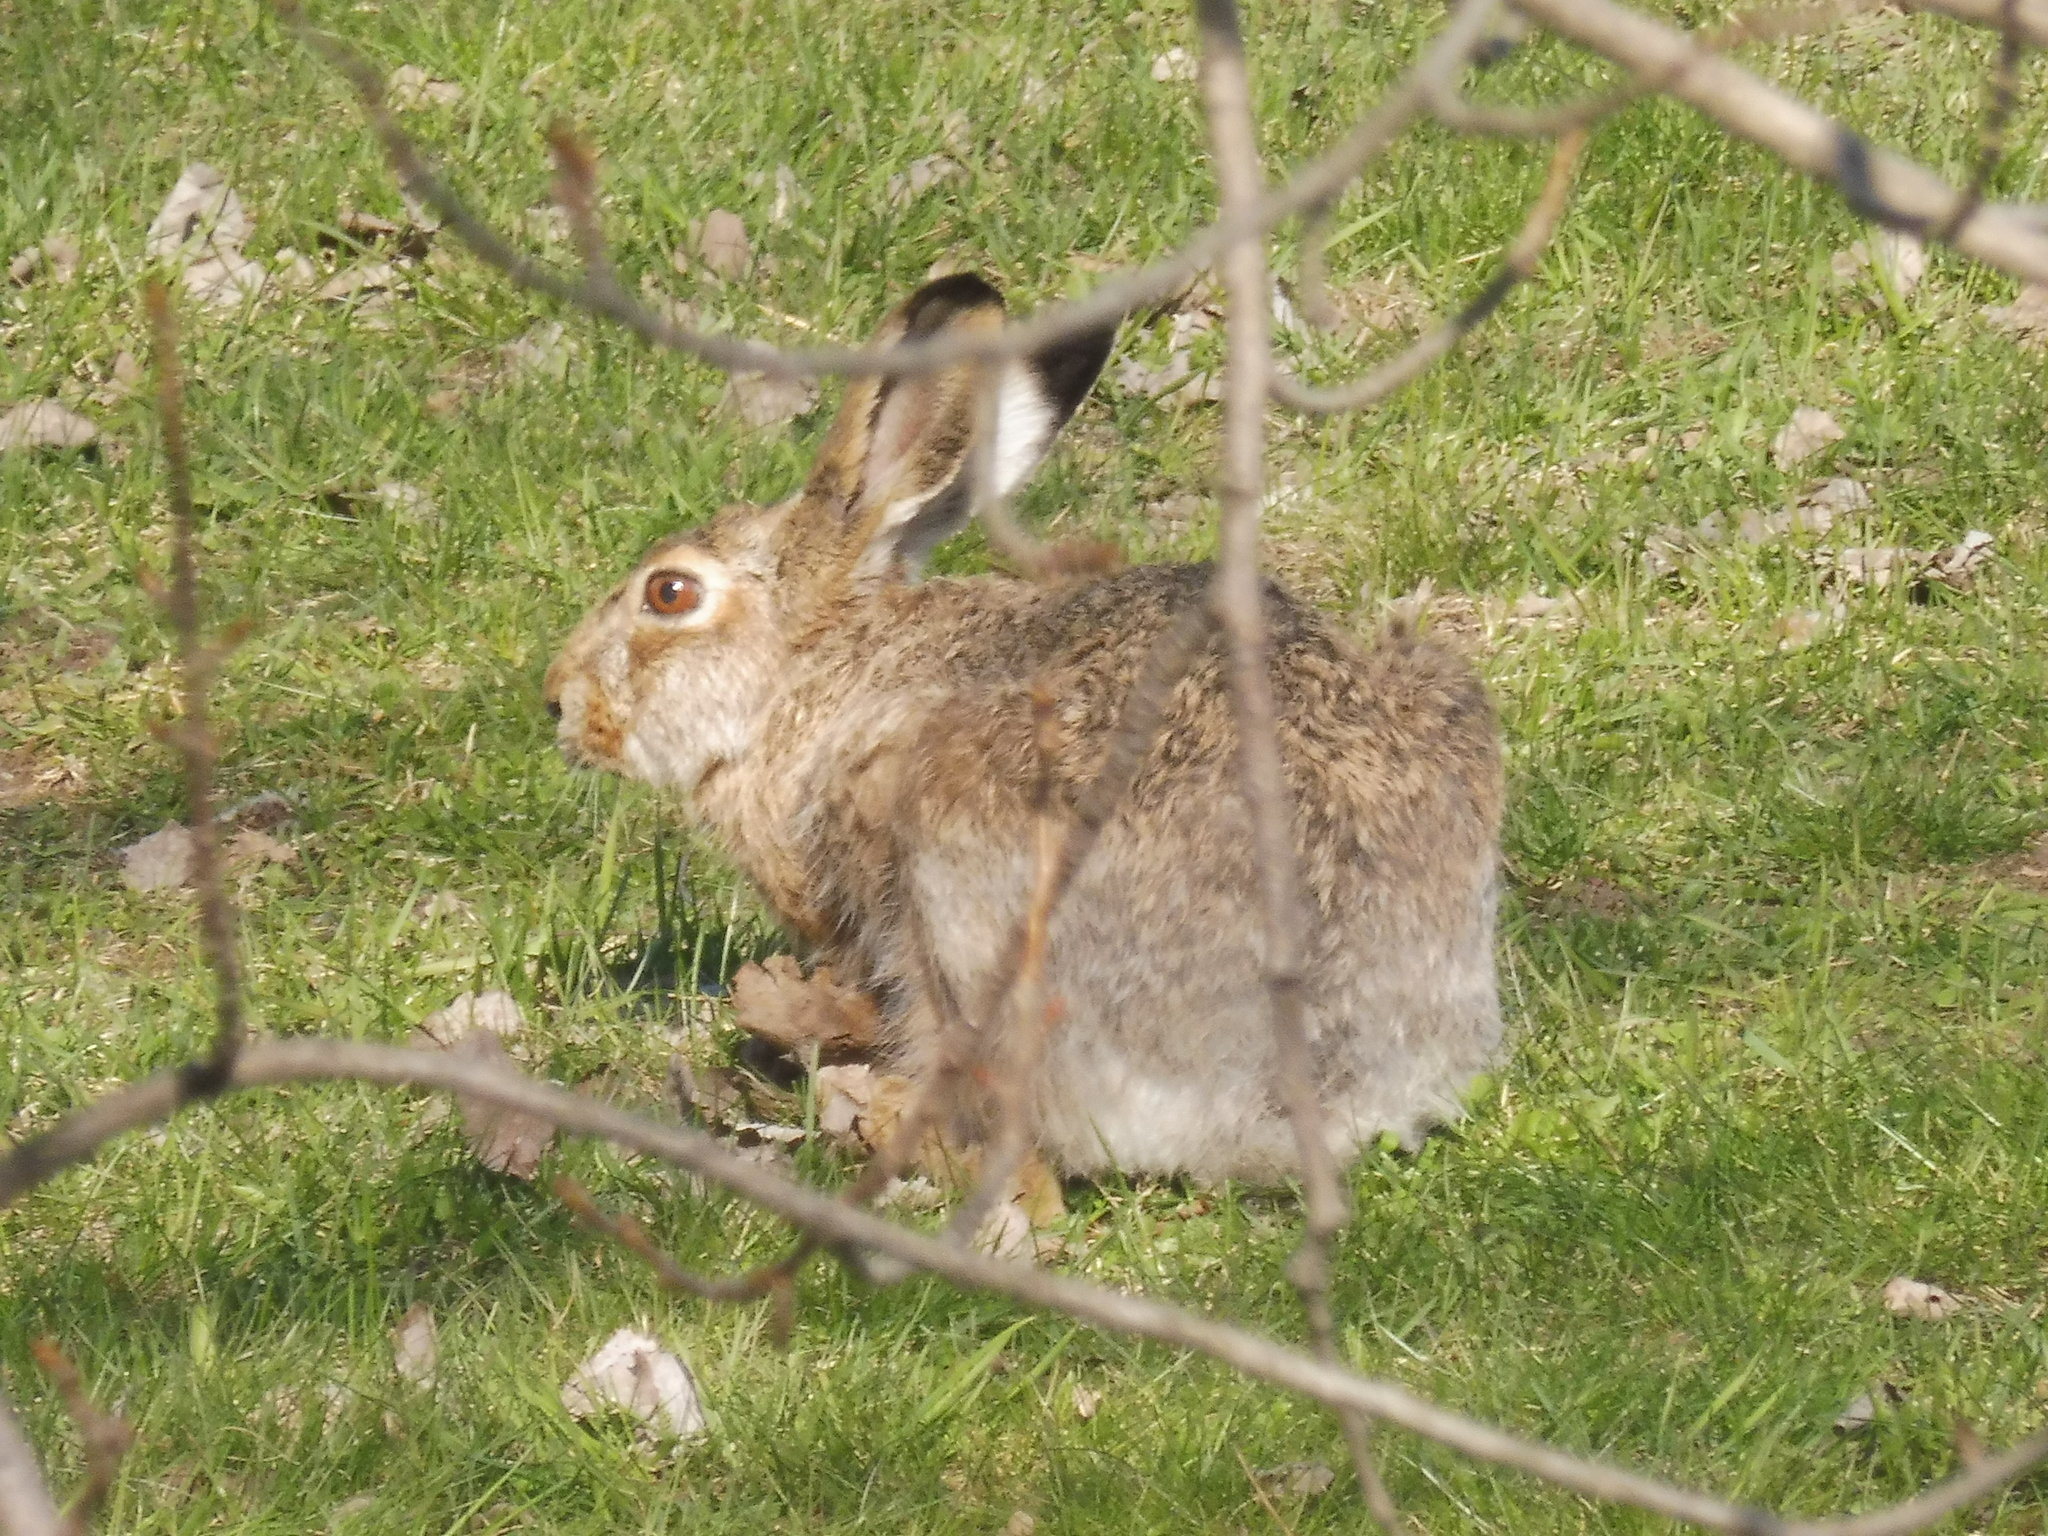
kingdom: Animalia
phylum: Chordata
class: Mammalia
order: Lagomorpha
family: Leporidae
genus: Lepus
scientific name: Lepus europaeus
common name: European hare
